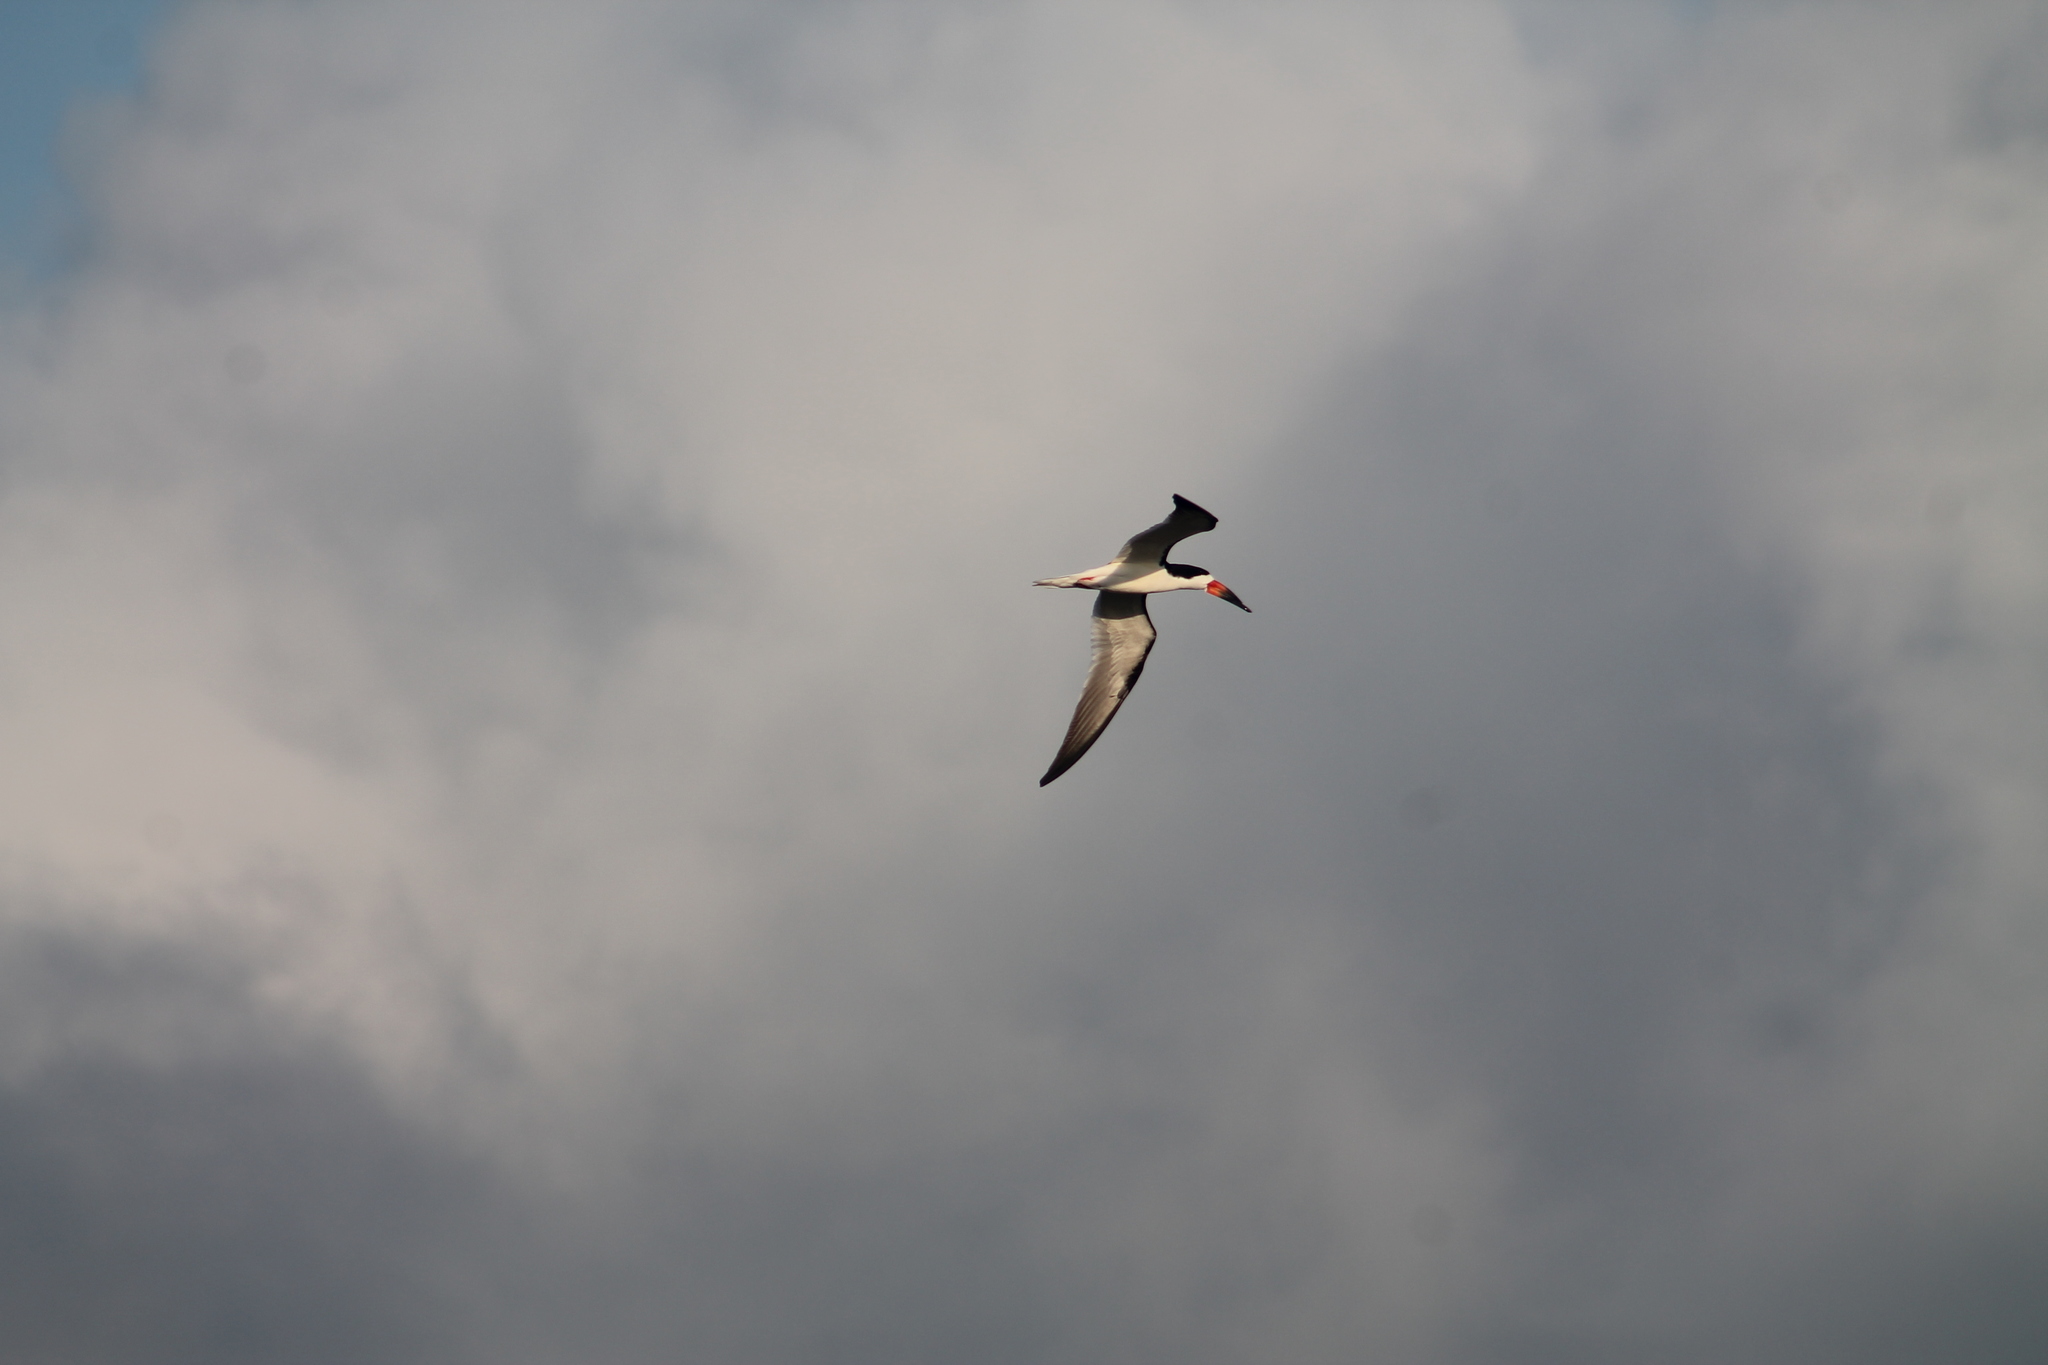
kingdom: Animalia
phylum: Chordata
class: Aves
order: Charadriiformes
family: Laridae
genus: Rynchops
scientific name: Rynchops niger
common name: Black skimmer
